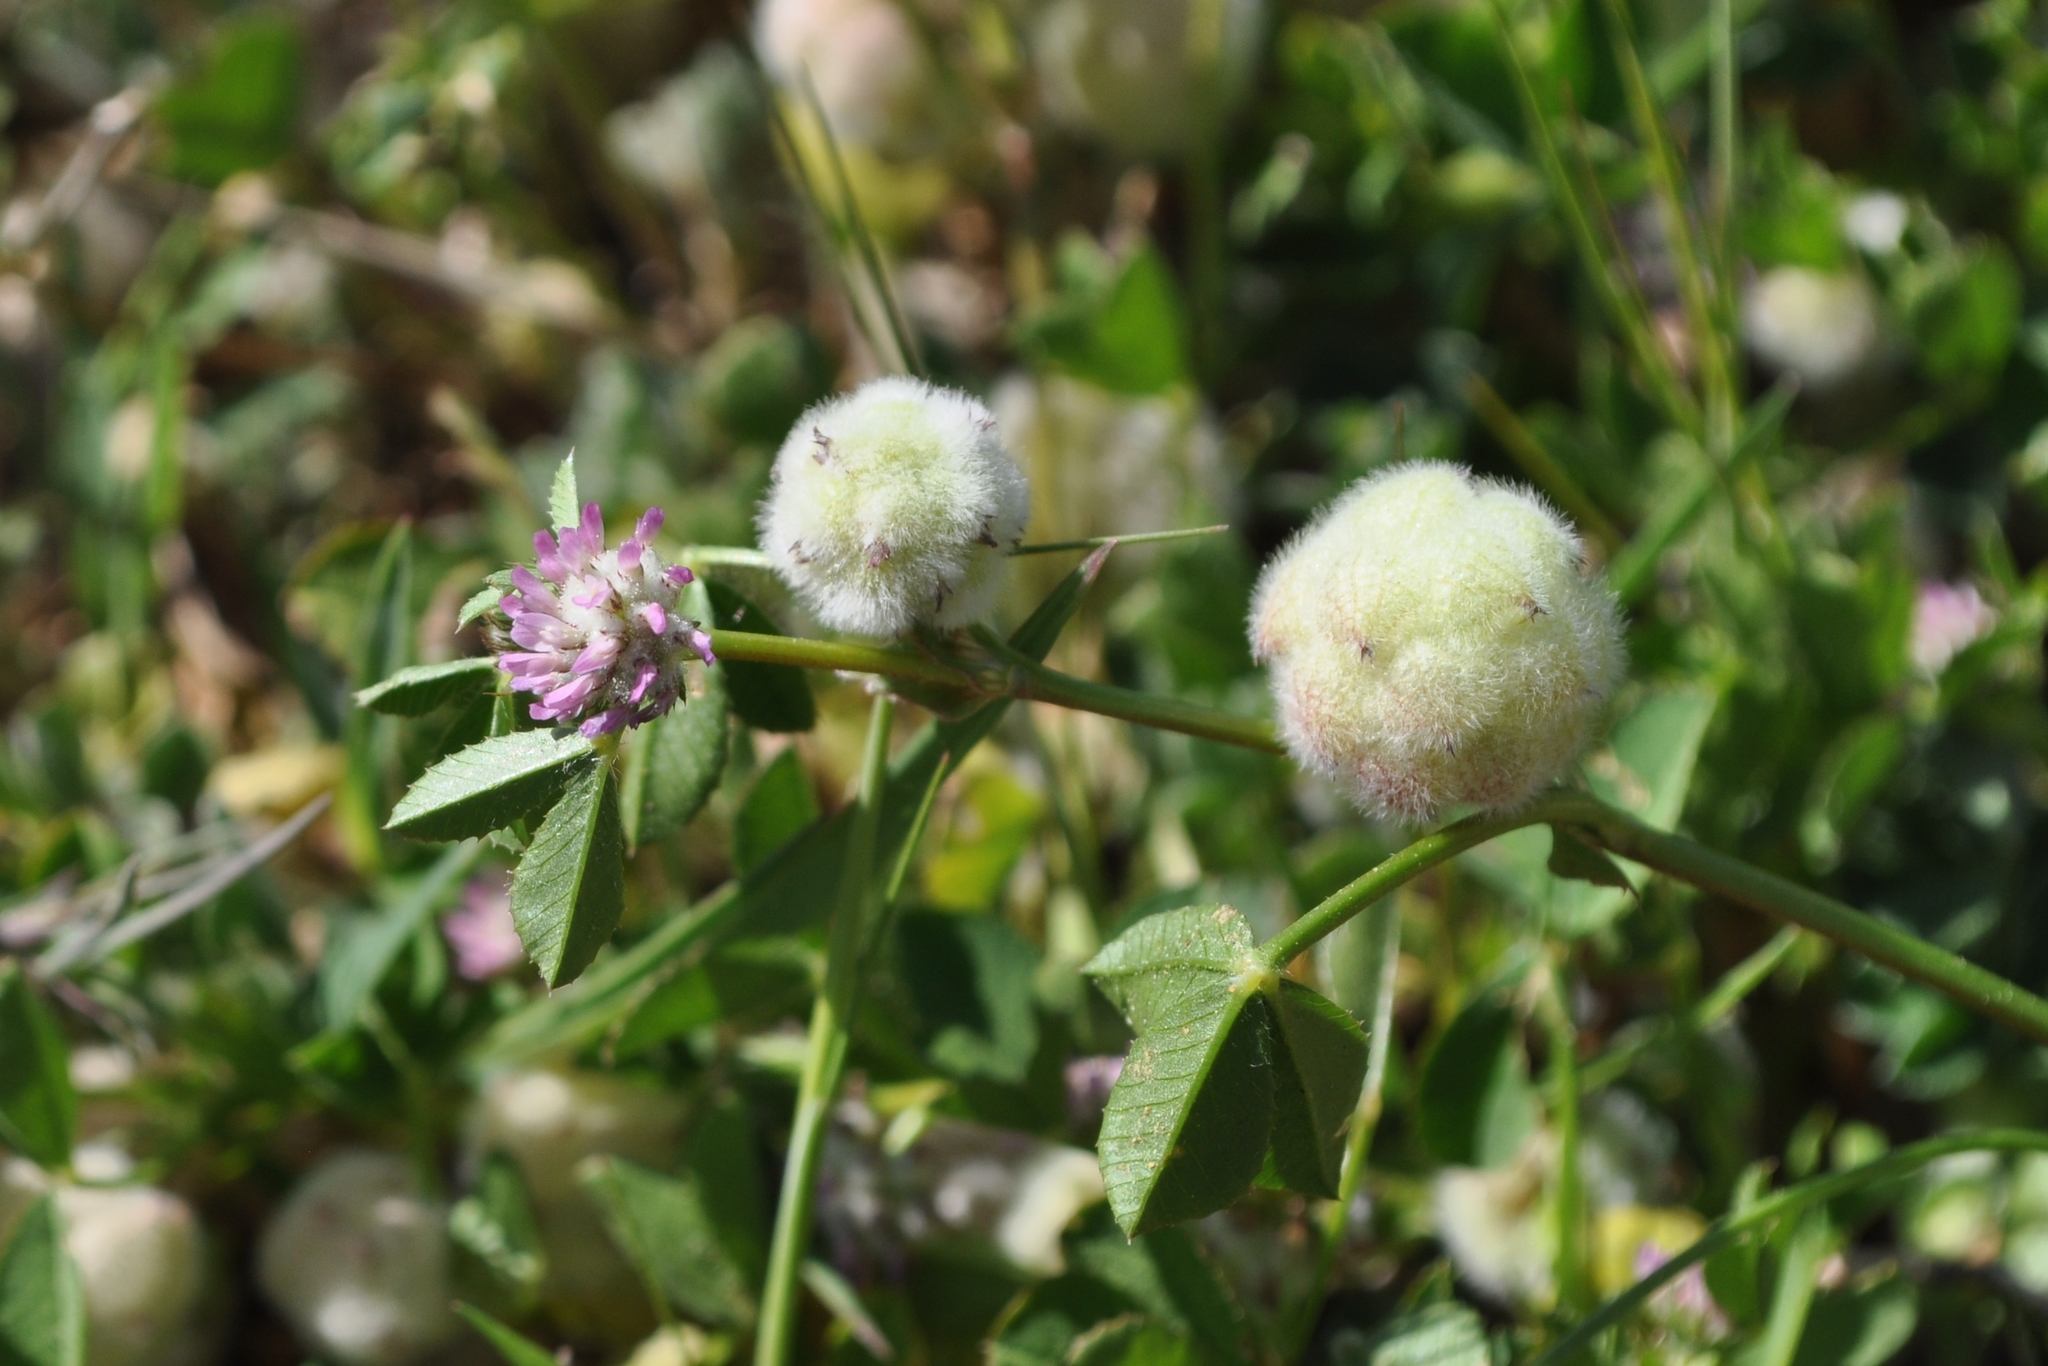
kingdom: Plantae
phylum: Tracheophyta
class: Magnoliopsida
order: Fabales
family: Fabaceae
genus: Trifolium
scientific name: Trifolium tomentosum
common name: Woolly clover
